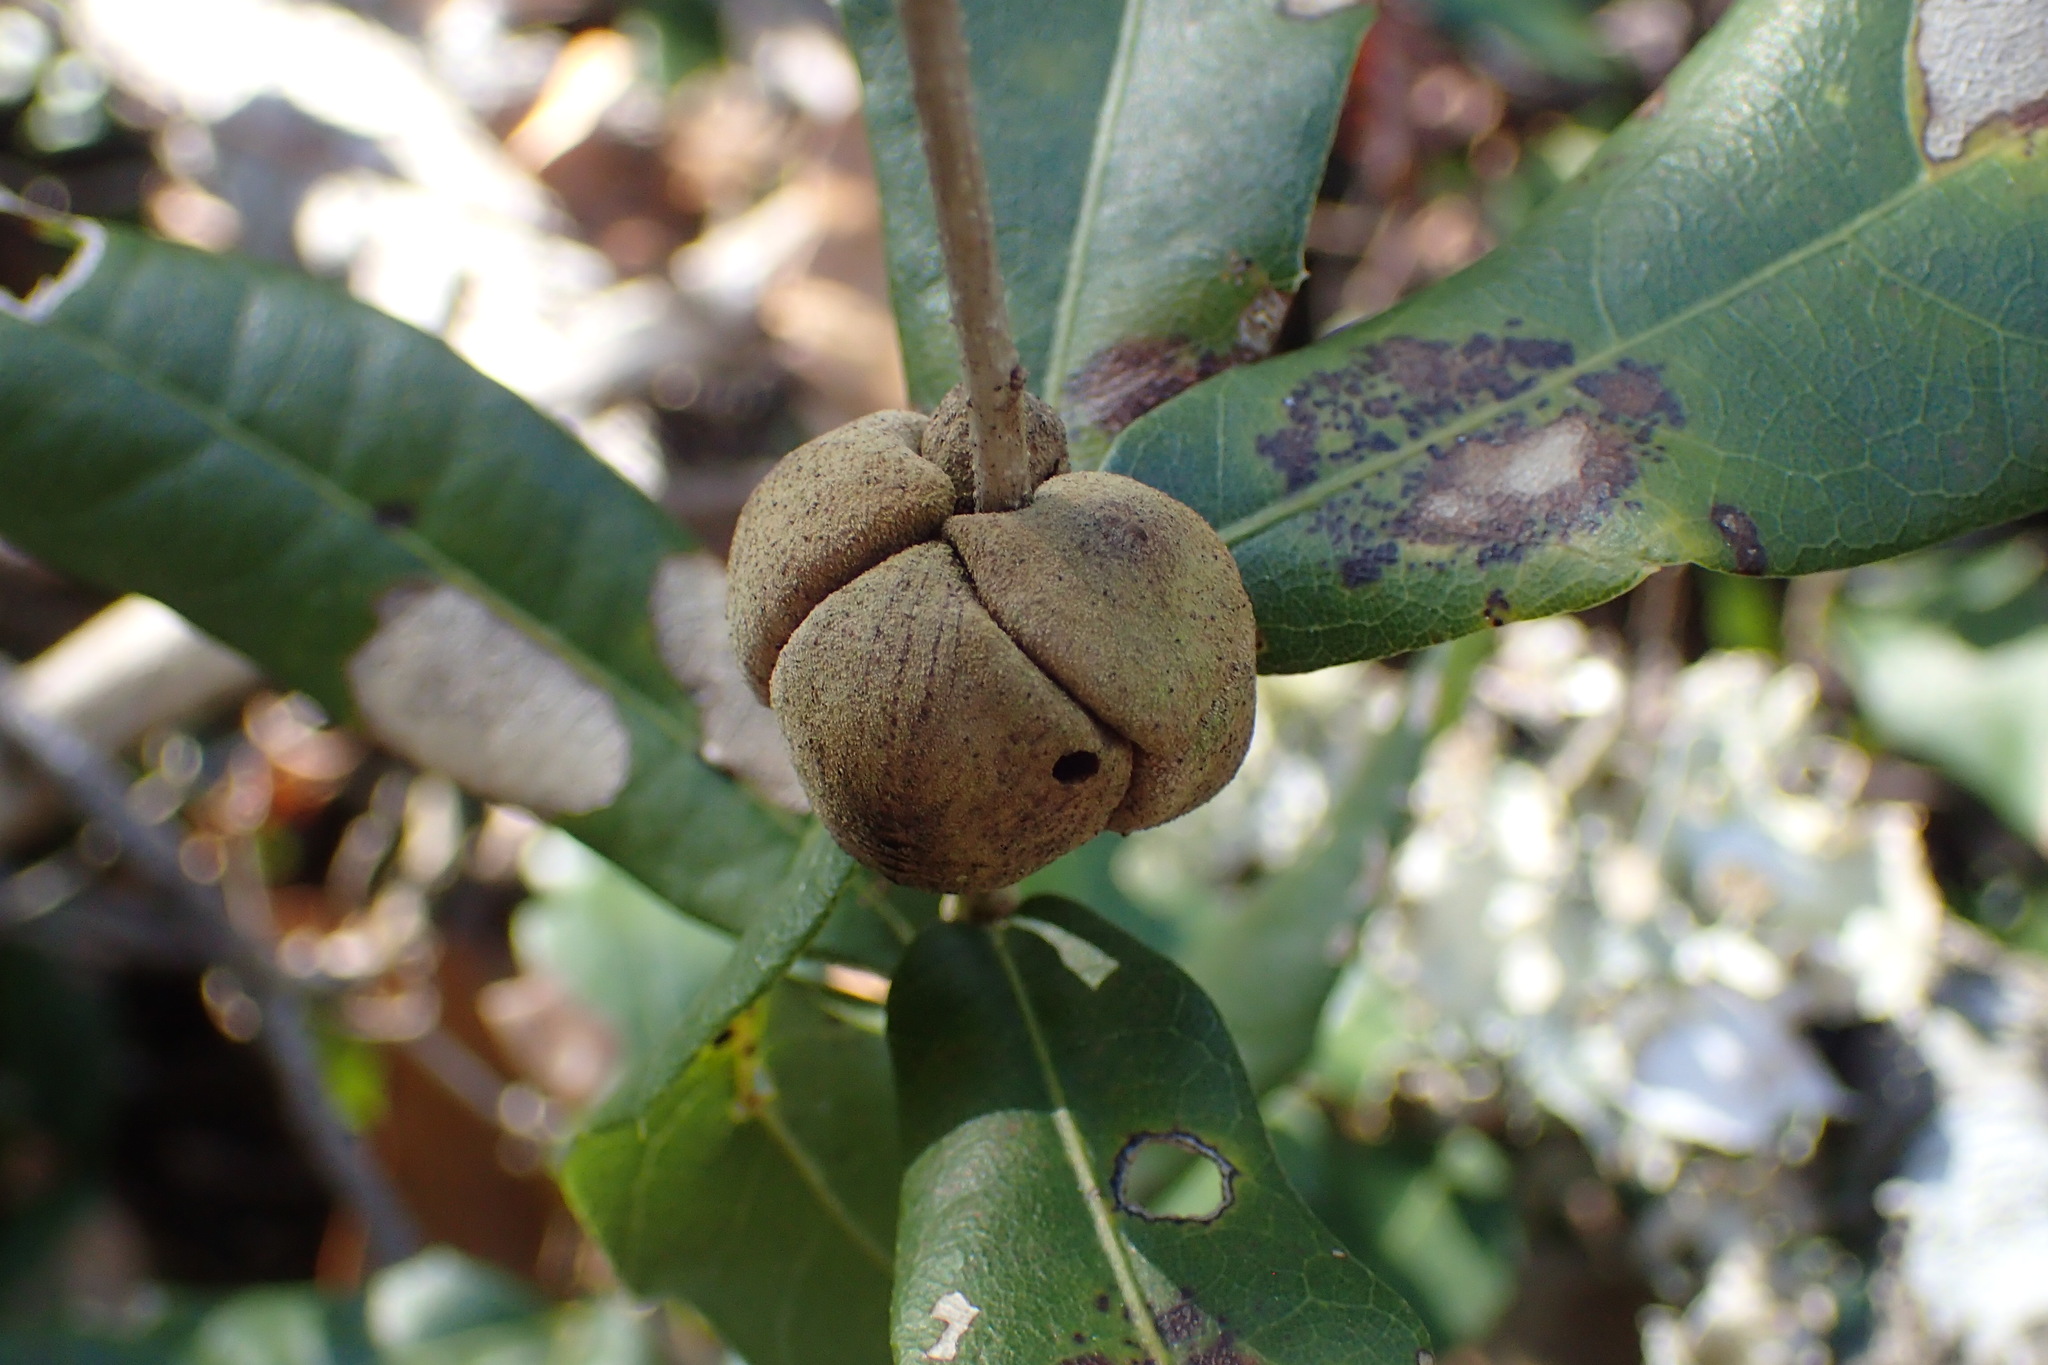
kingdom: Animalia
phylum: Arthropoda
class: Insecta
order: Hymenoptera
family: Cynipidae
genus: Disholcaspis
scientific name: Disholcaspis
